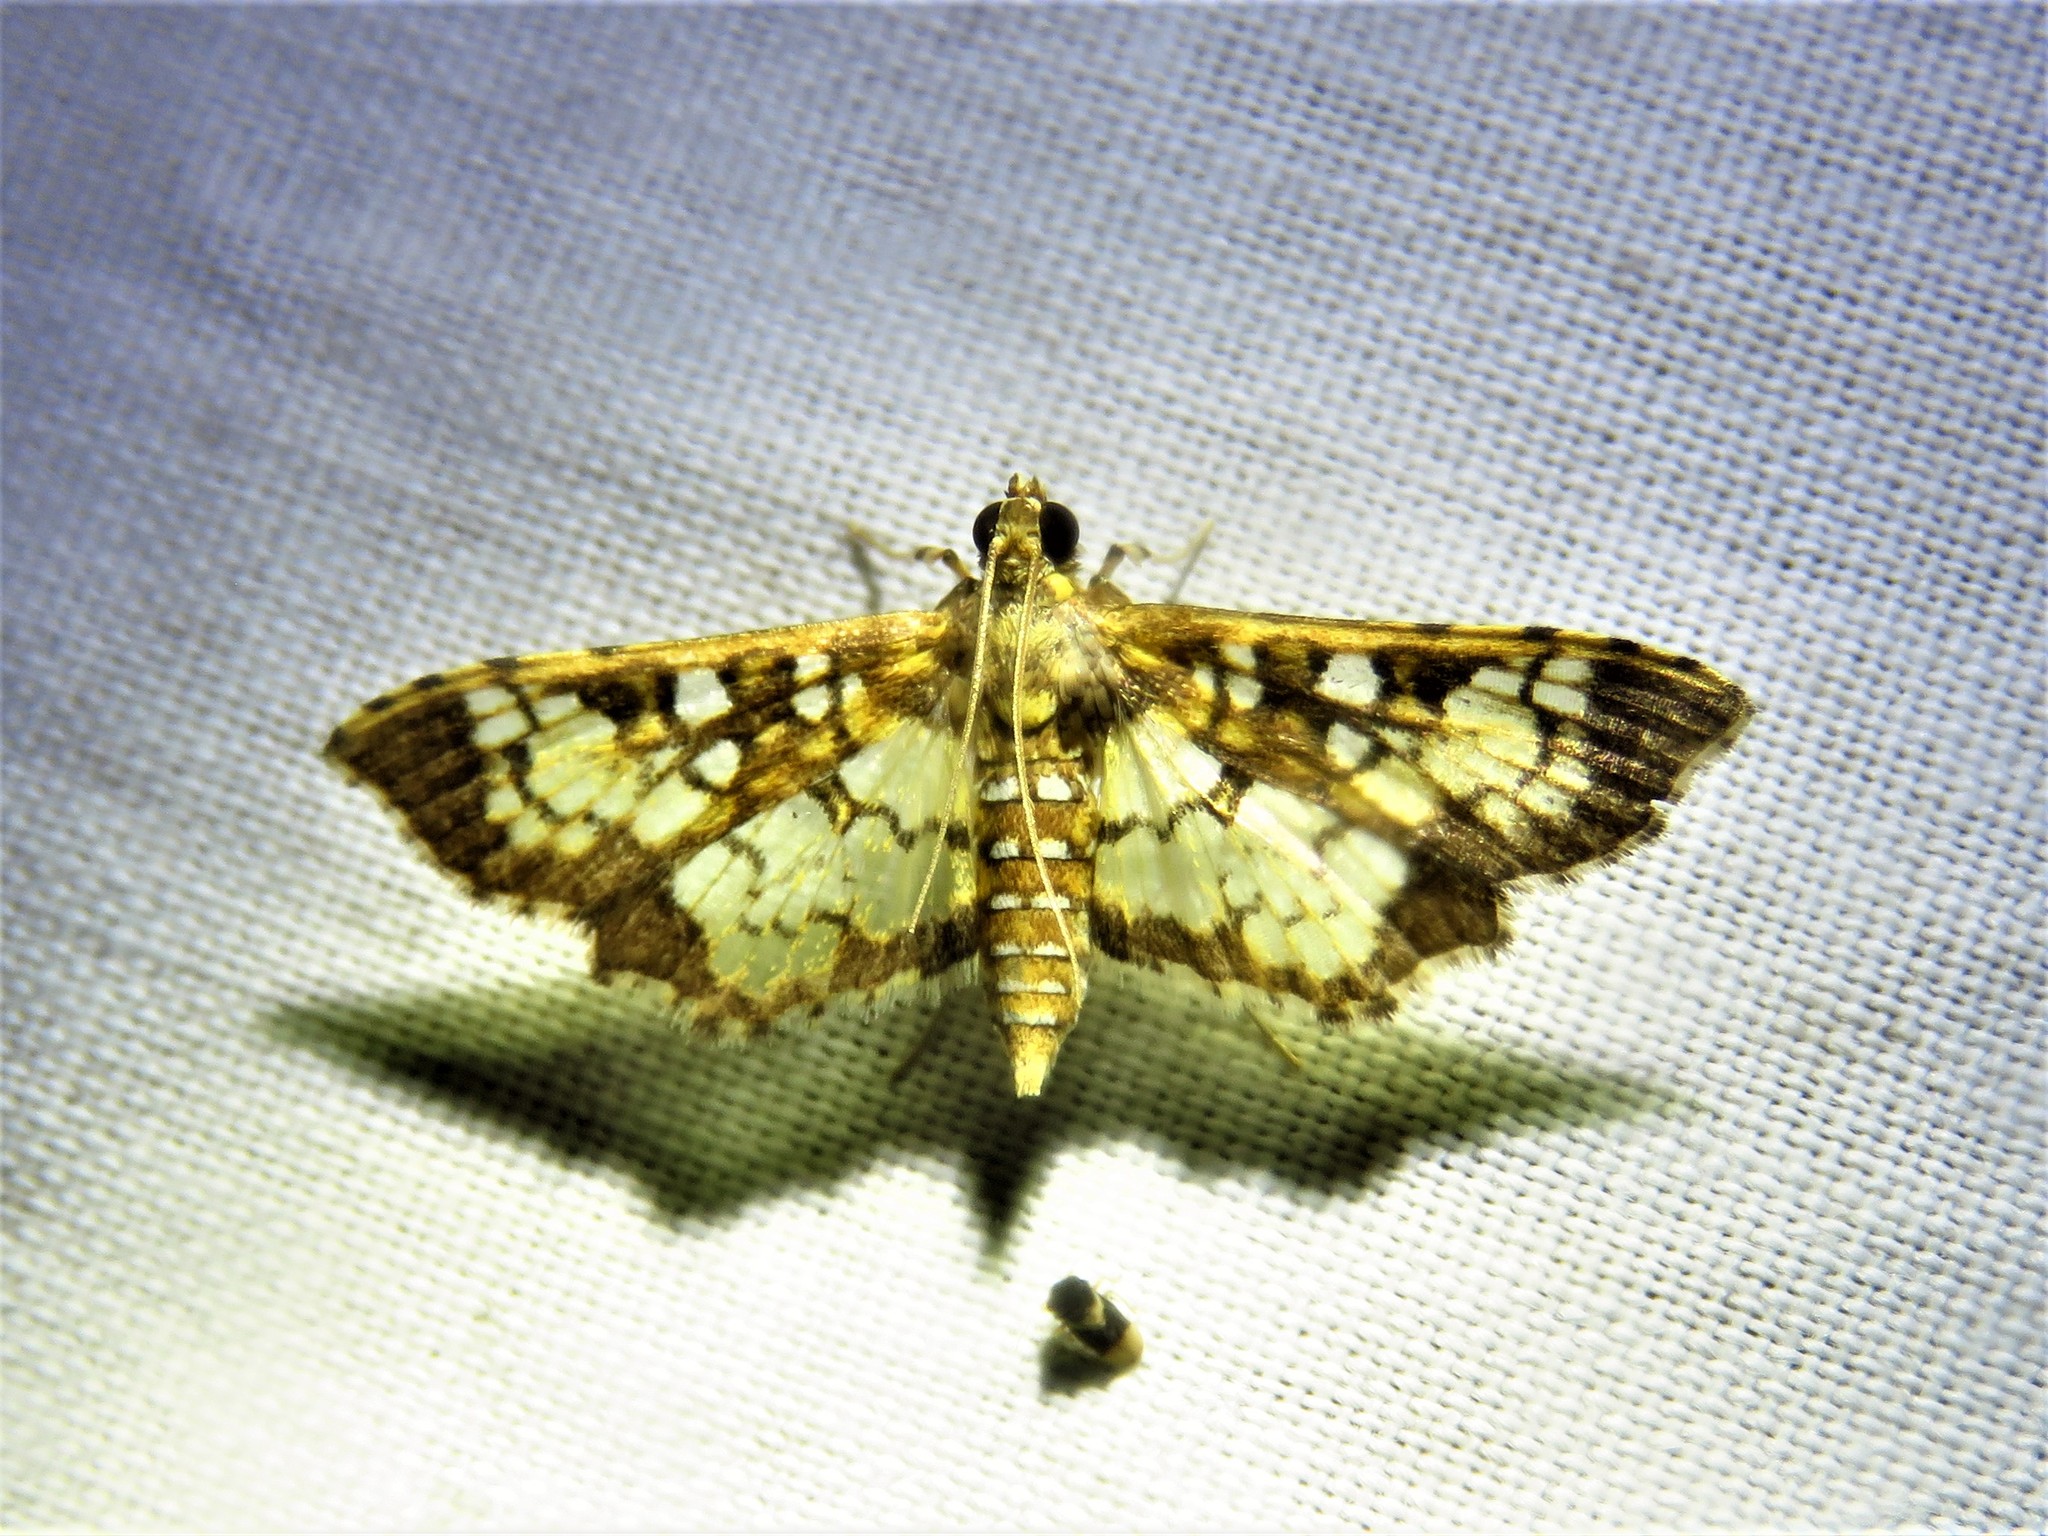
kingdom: Animalia
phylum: Arthropoda
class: Insecta
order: Lepidoptera
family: Crambidae
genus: Samea
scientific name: Samea ecclesialis
